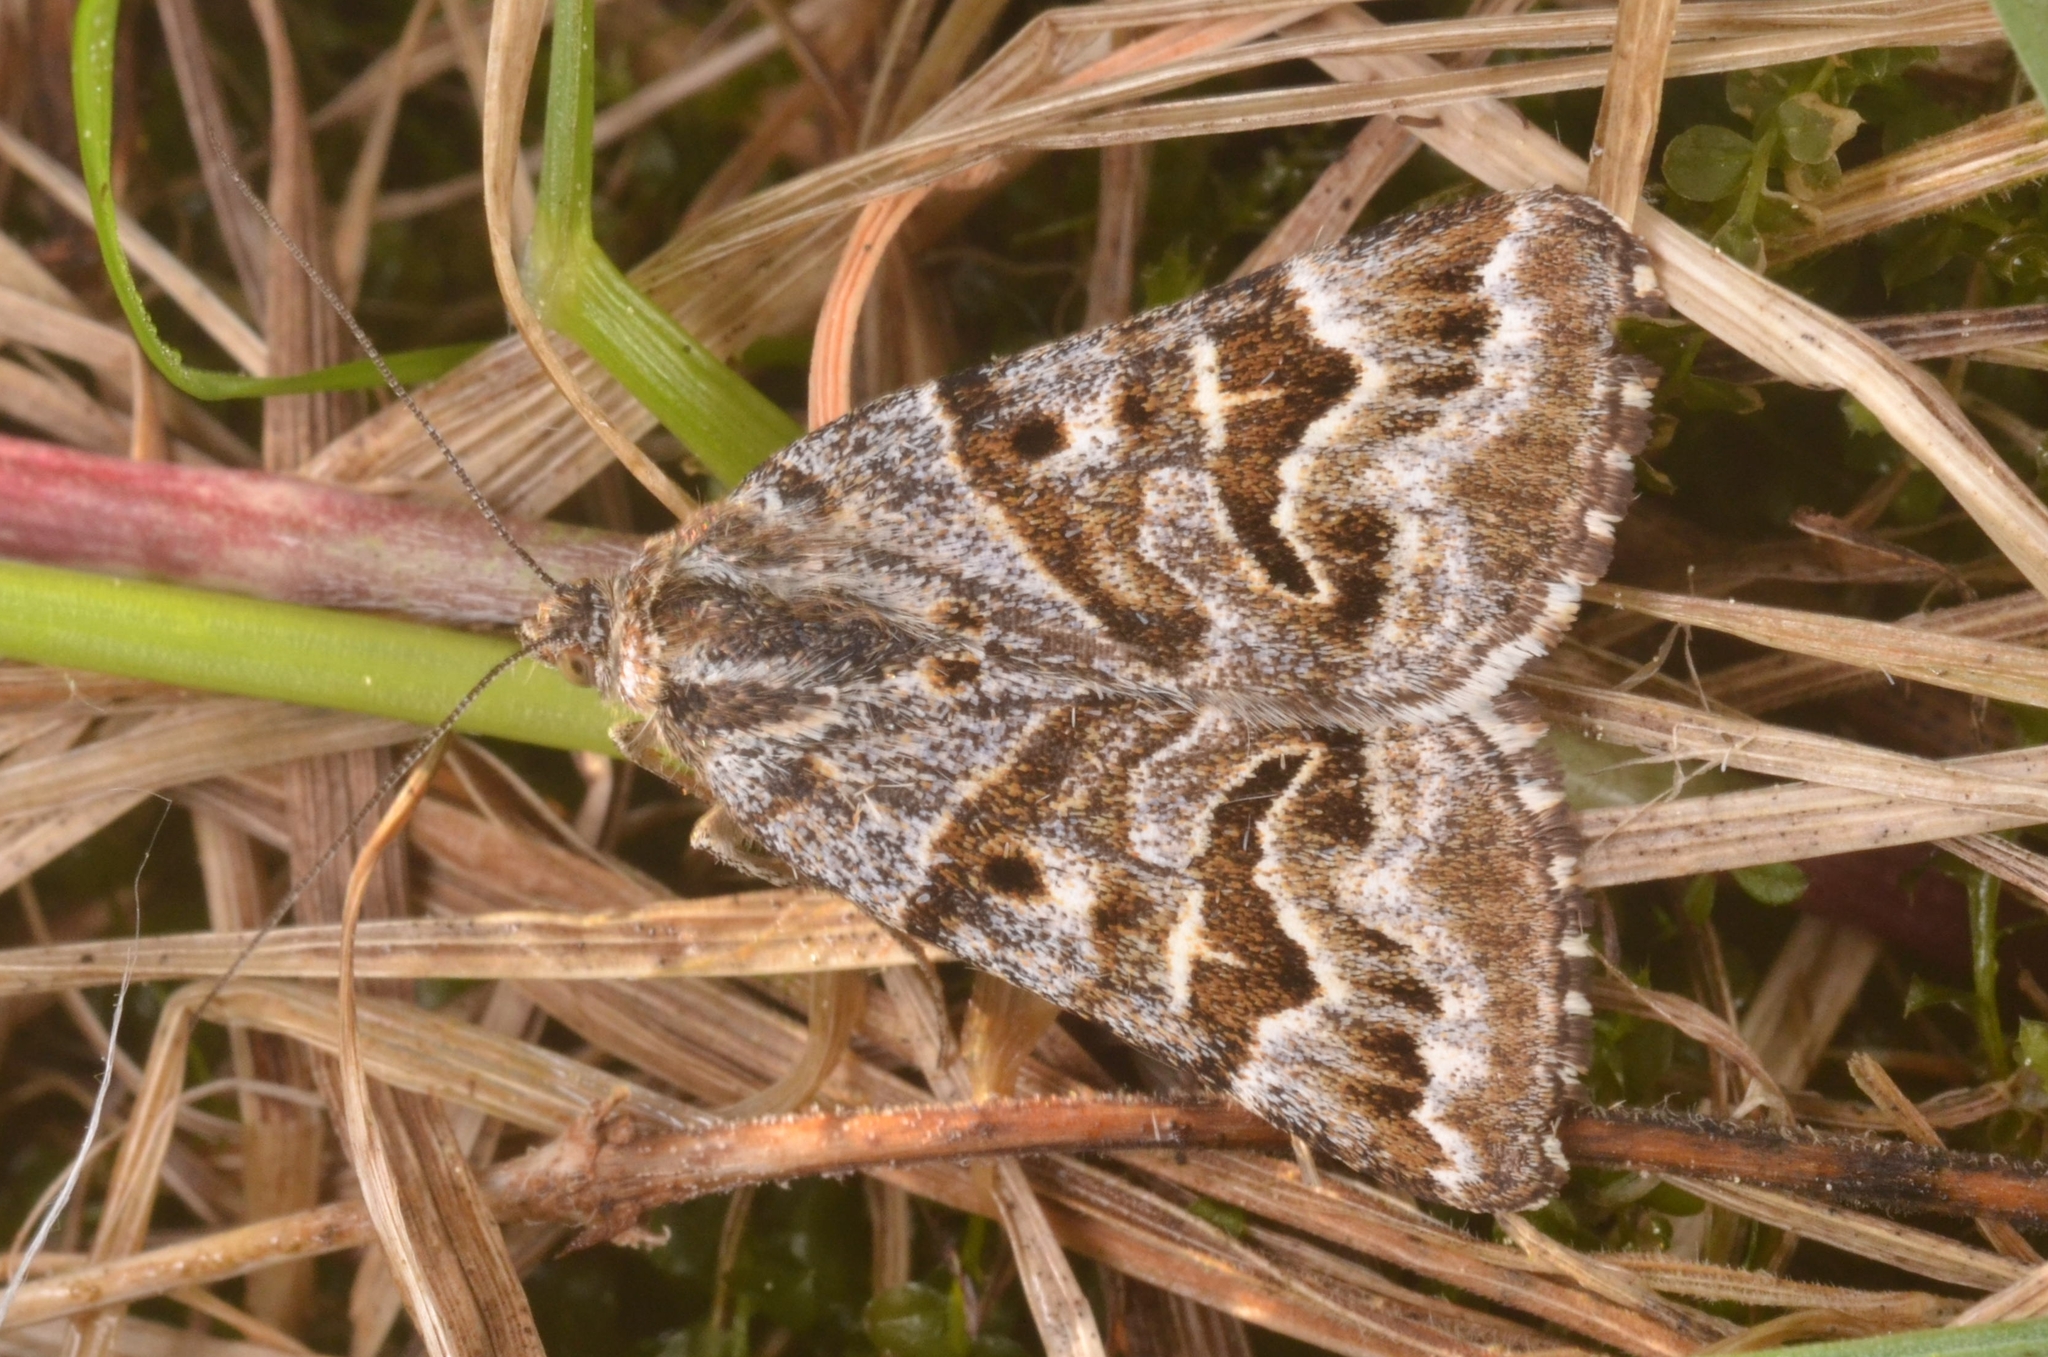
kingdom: Animalia
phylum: Arthropoda
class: Insecta
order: Lepidoptera
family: Erebidae
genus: Callistege
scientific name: Callistege mi
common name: Mother shipton
